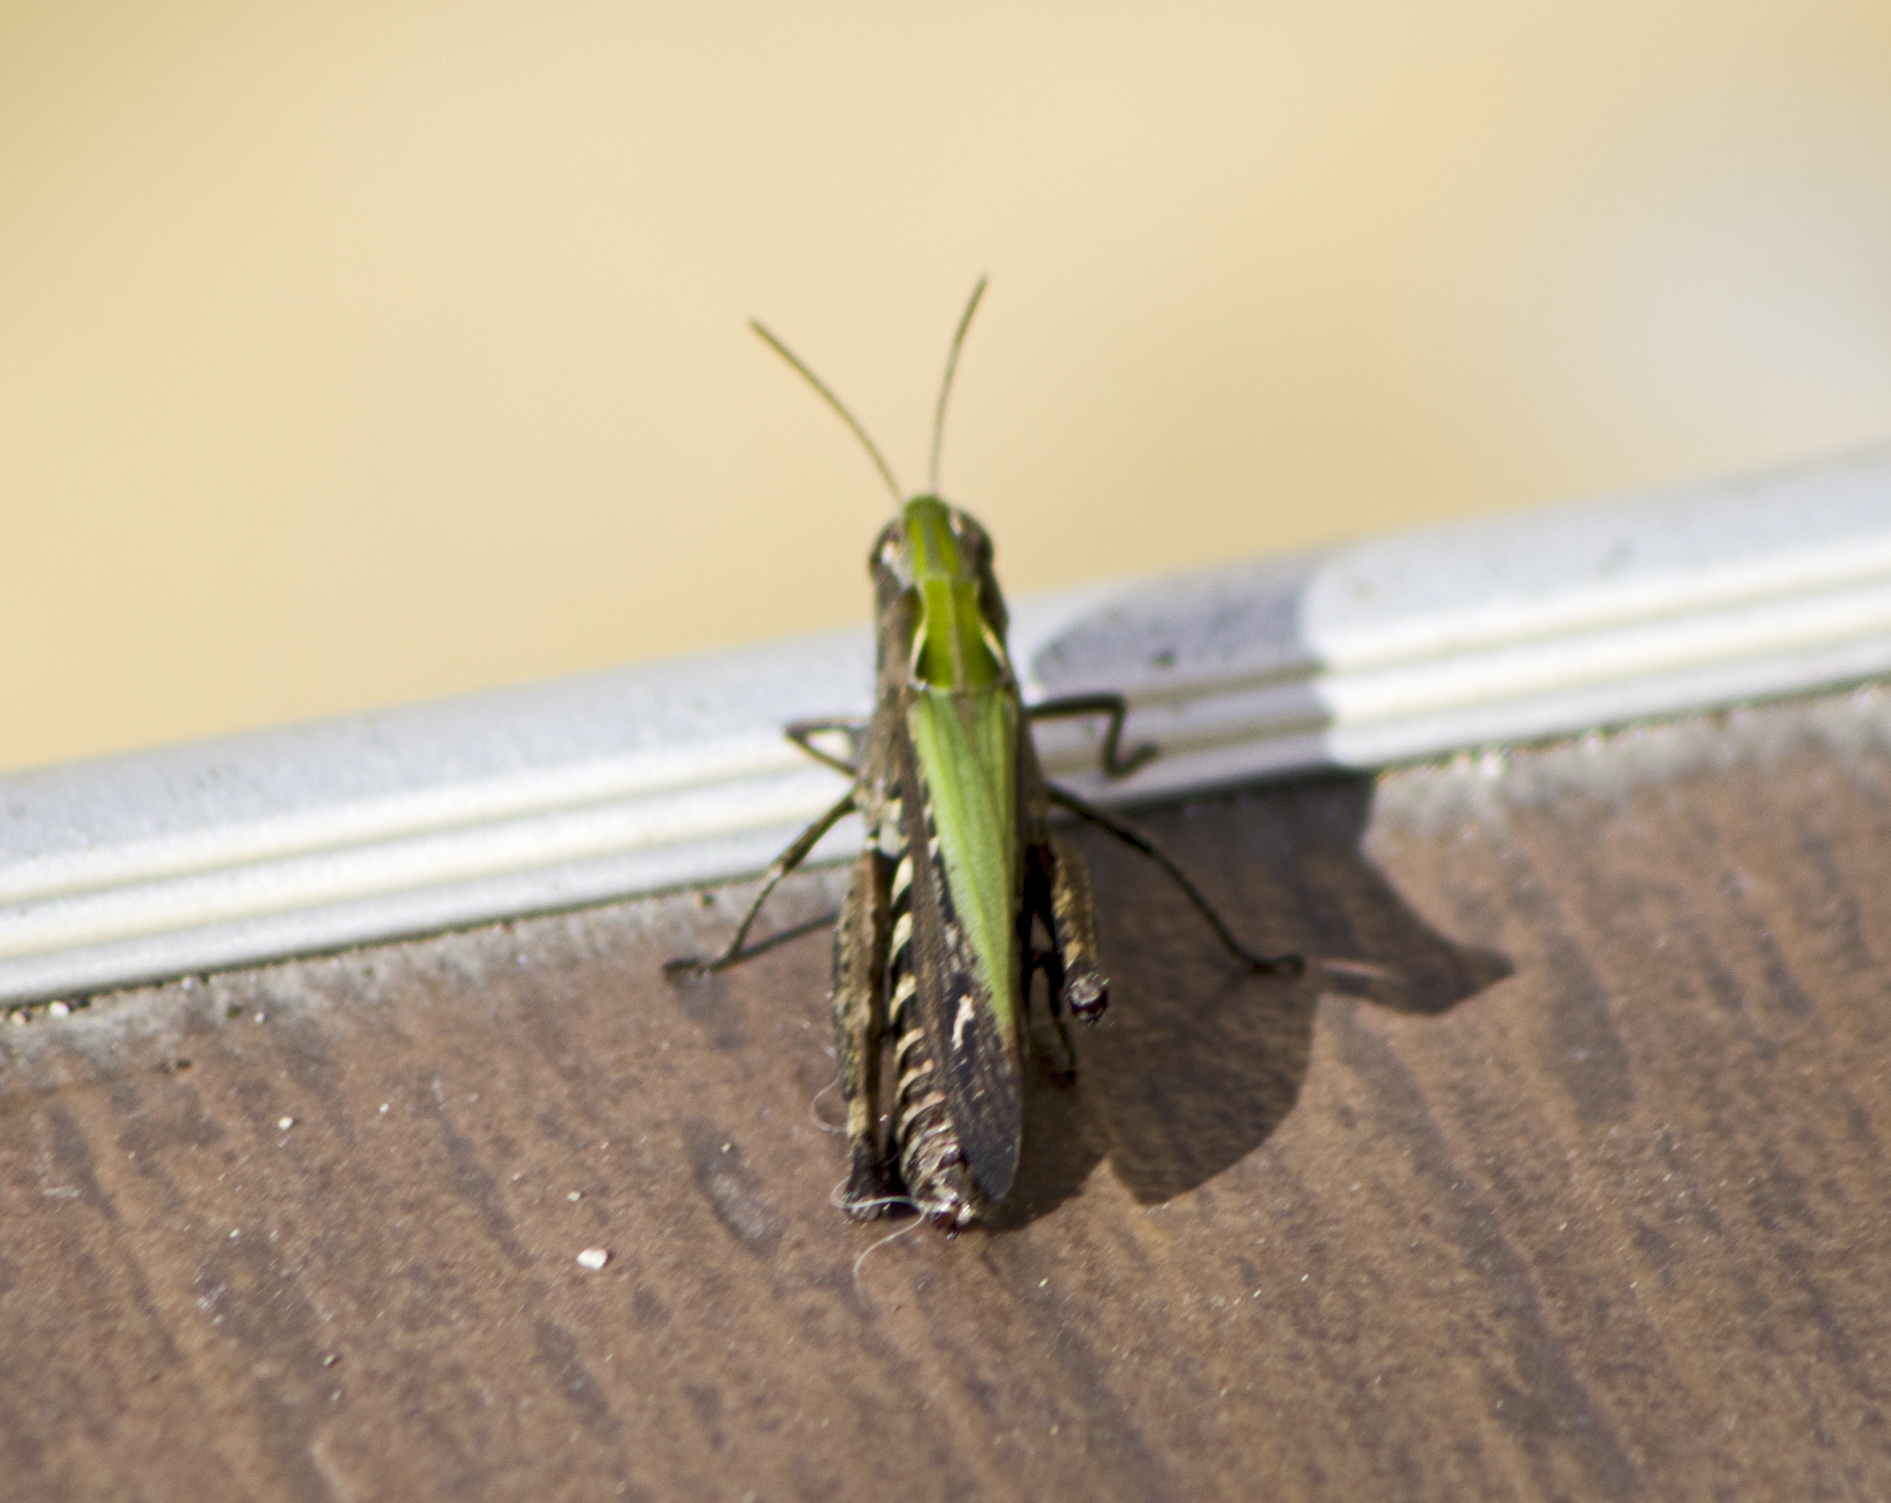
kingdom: Animalia
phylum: Arthropoda
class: Insecta
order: Orthoptera
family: Acrididae
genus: Omocestus
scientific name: Omocestus rufipes
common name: Woodland grasshopper
